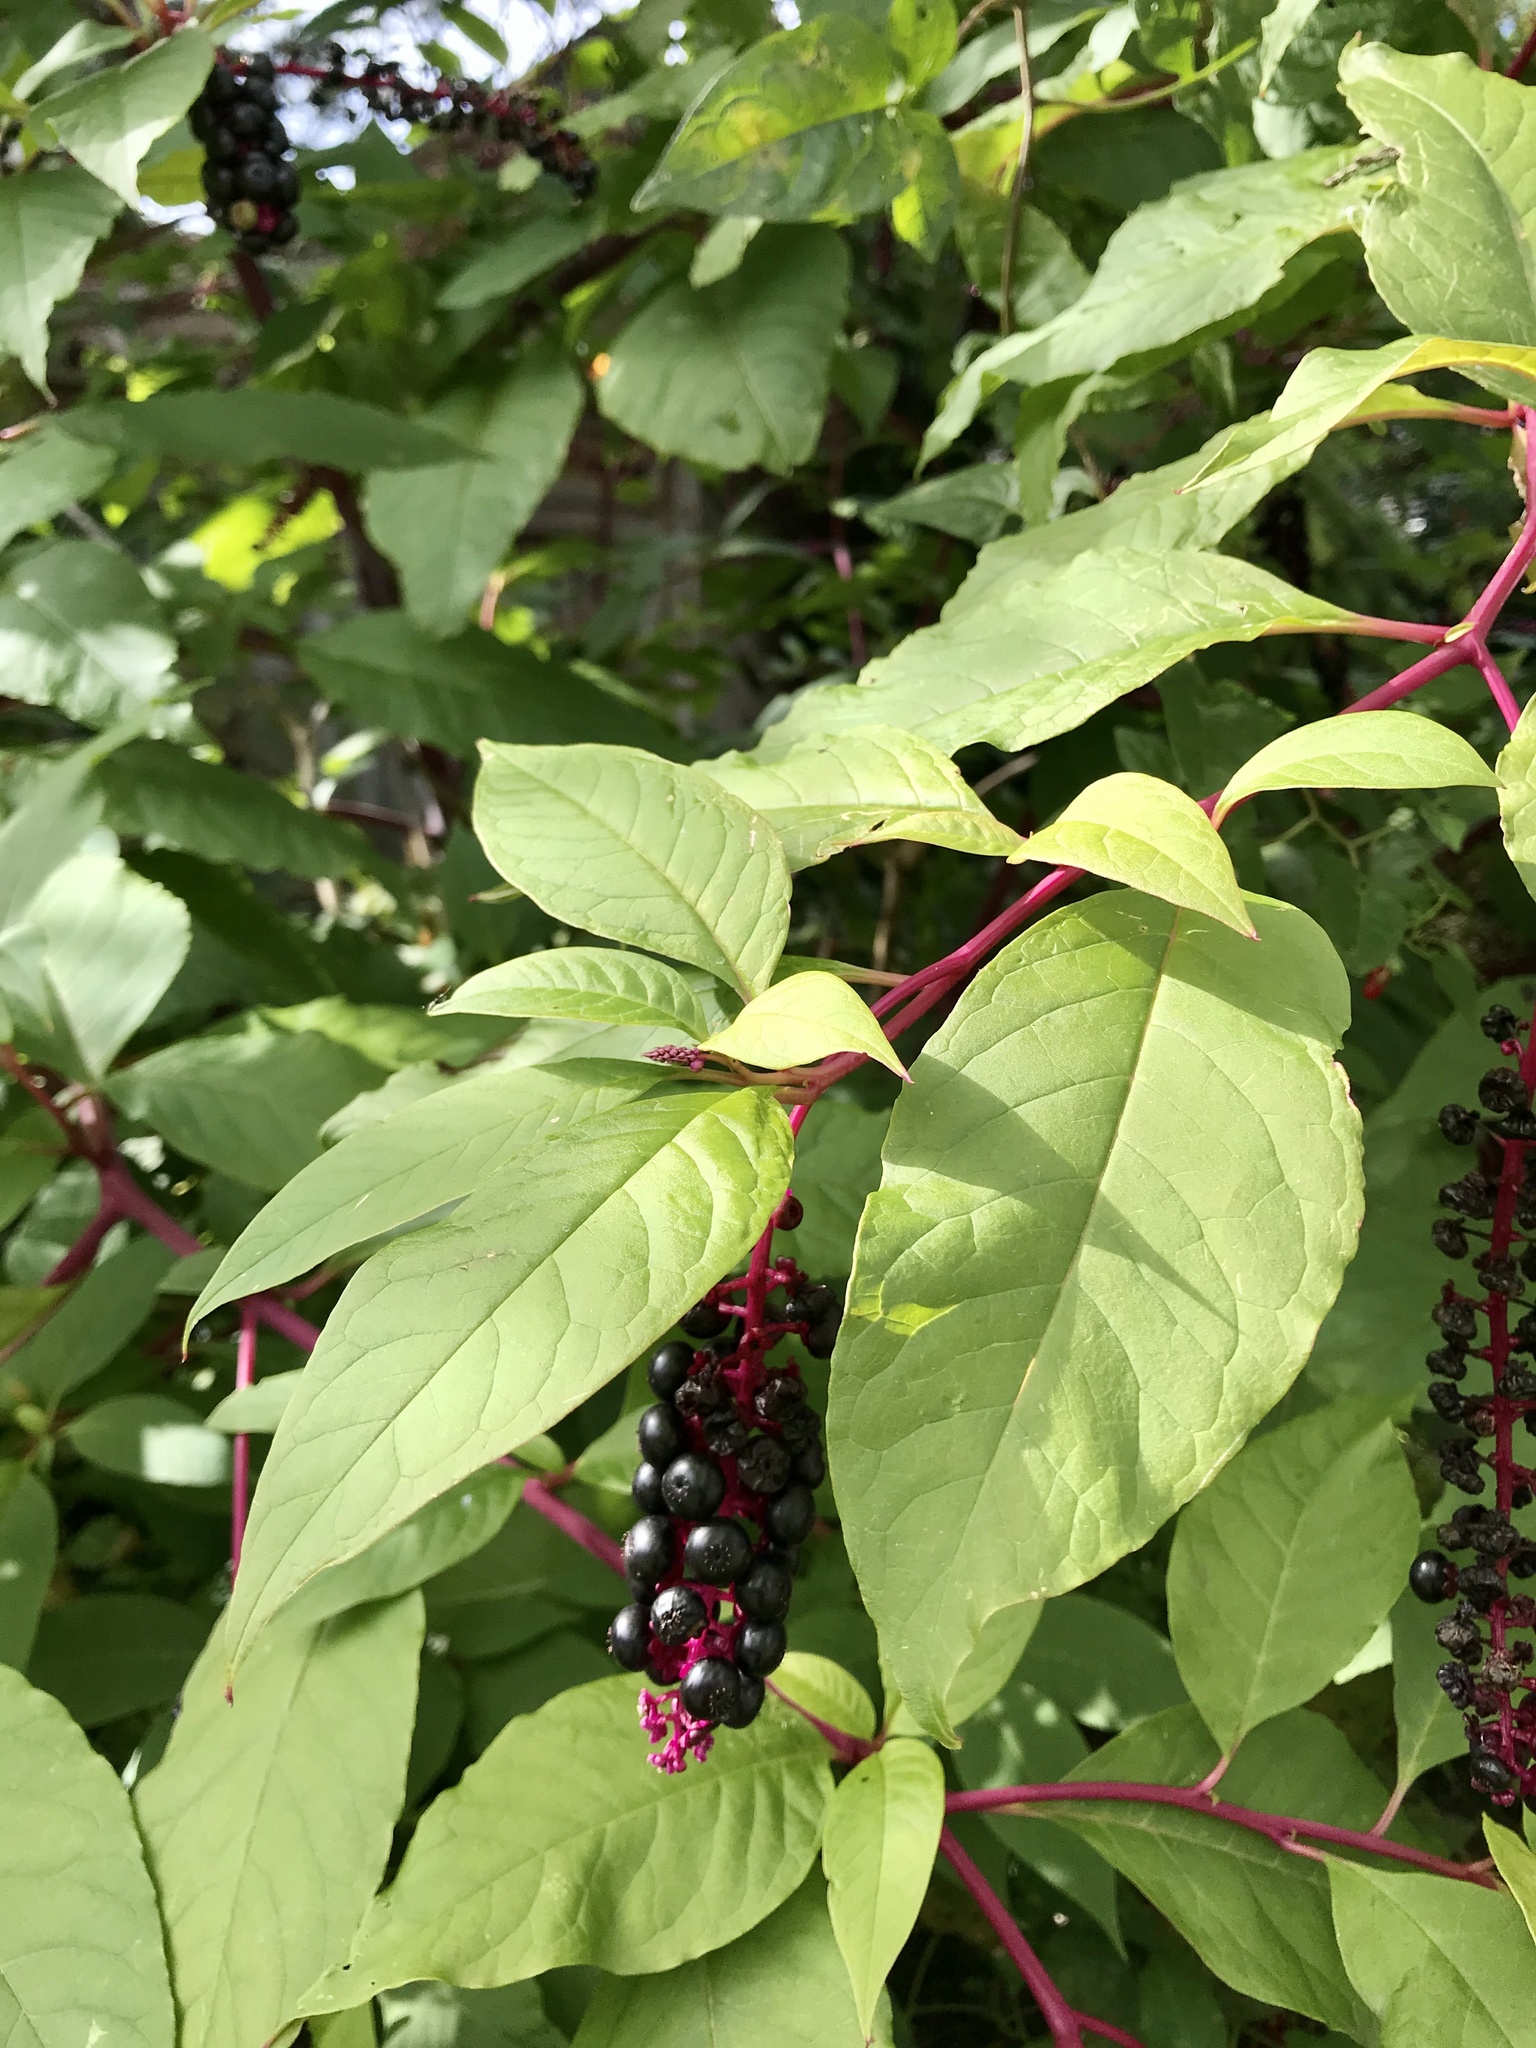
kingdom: Plantae
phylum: Tracheophyta
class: Magnoliopsida
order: Caryophyllales
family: Phytolaccaceae
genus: Phytolacca
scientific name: Phytolacca americana
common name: American pokeweed
